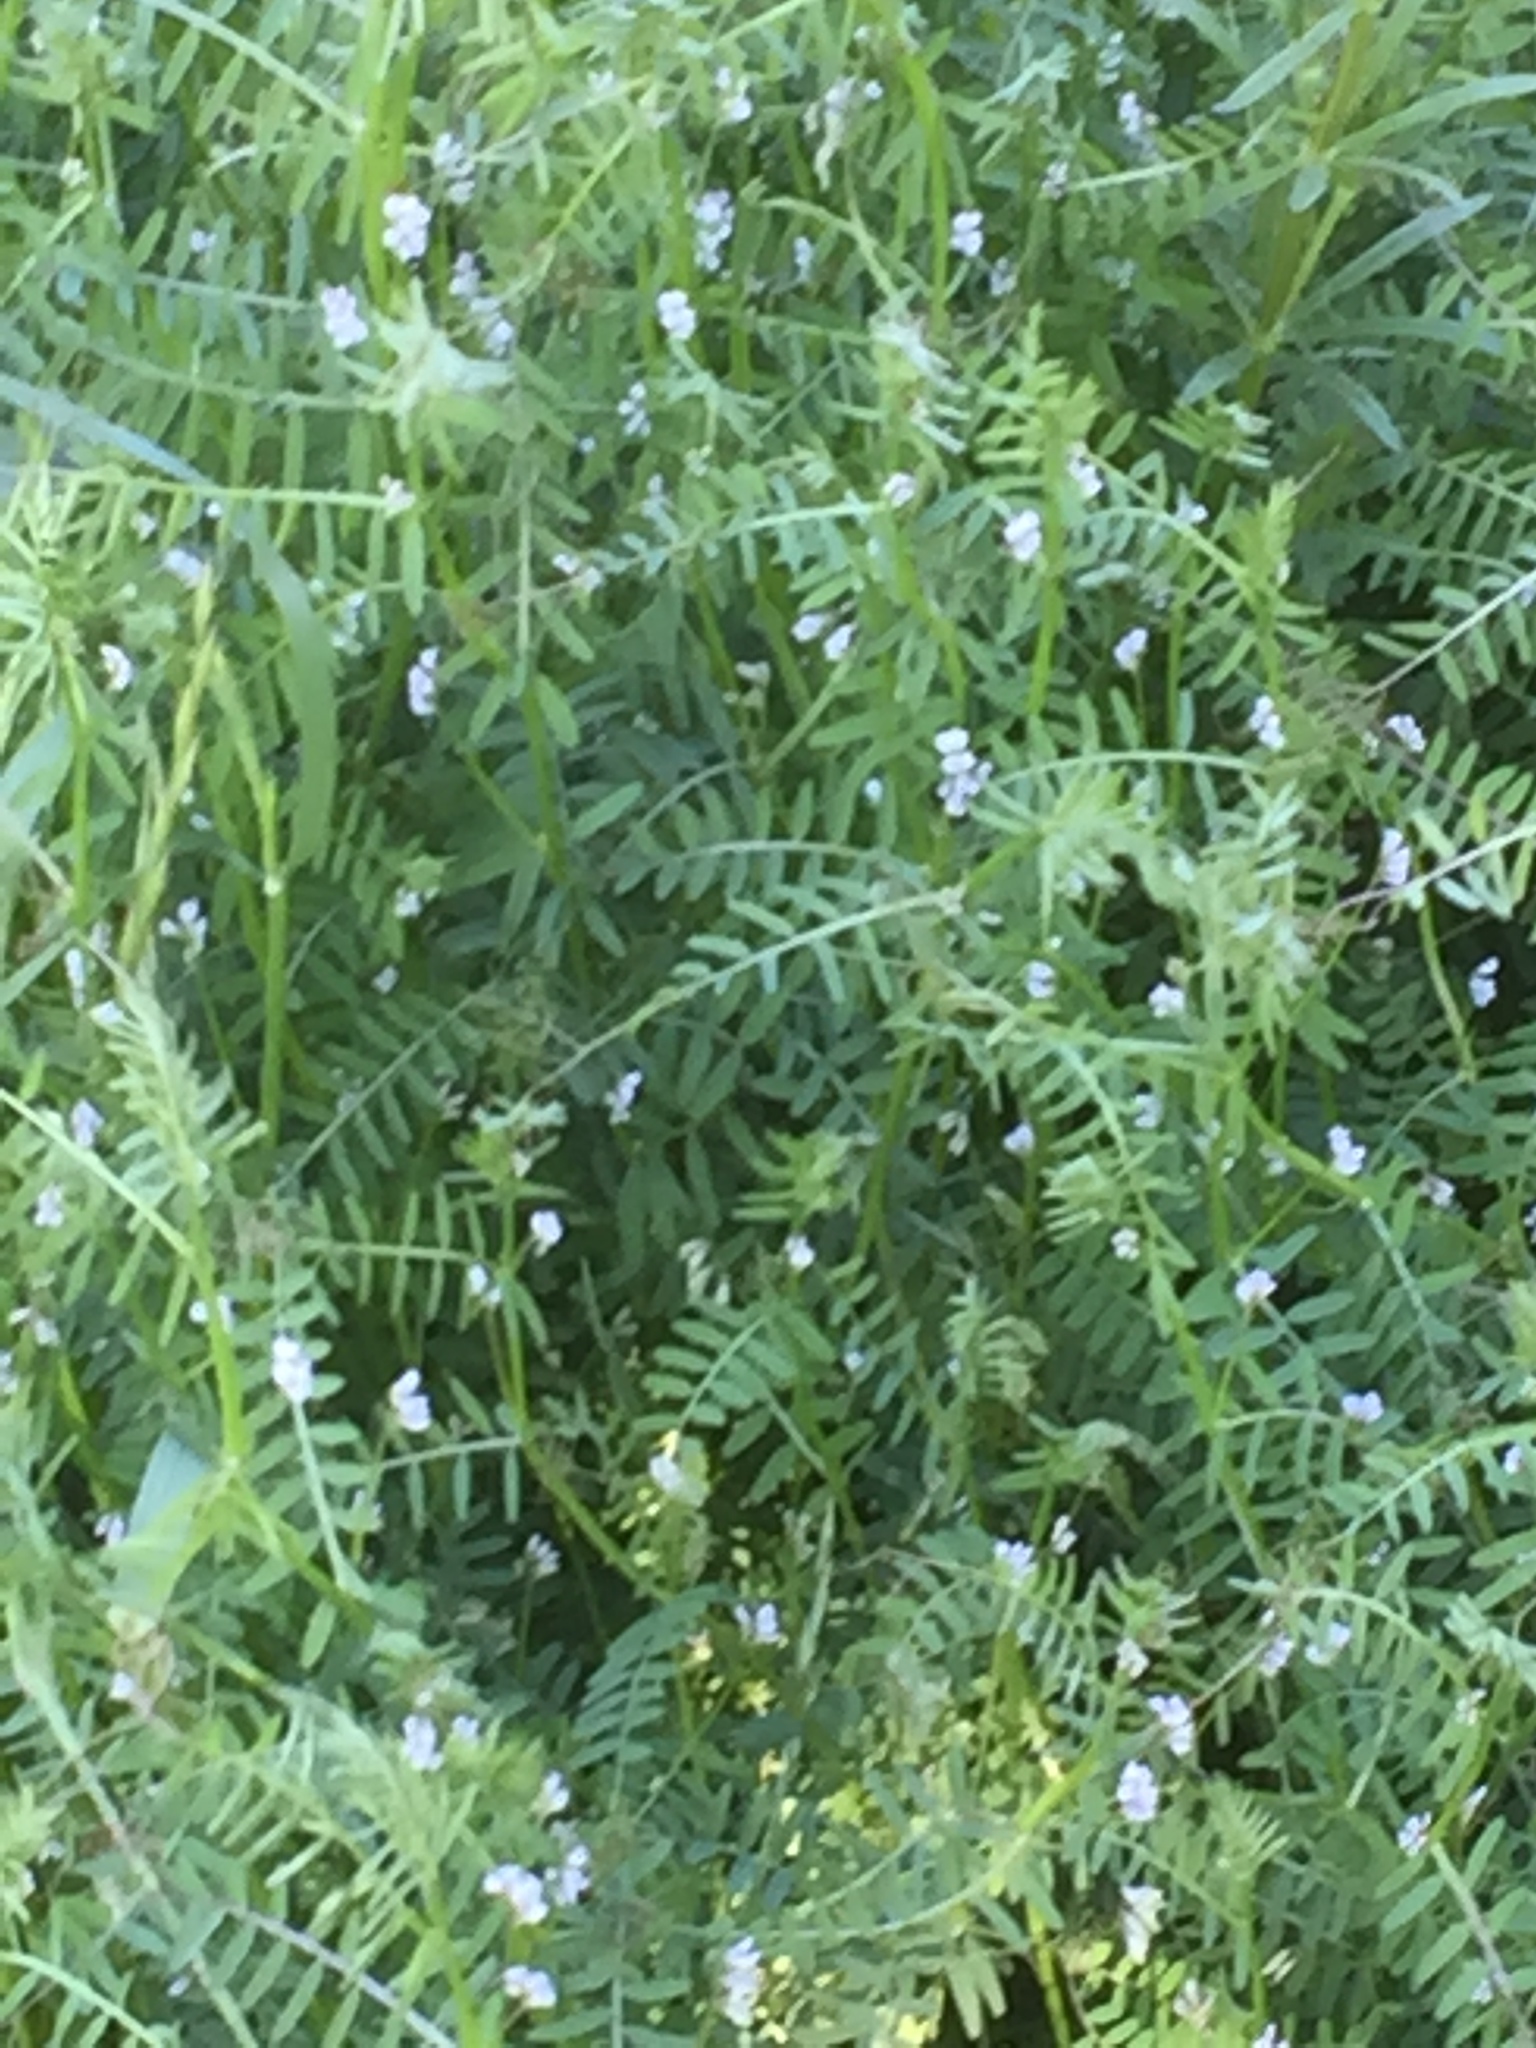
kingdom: Plantae
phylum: Tracheophyta
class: Magnoliopsida
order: Fabales
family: Fabaceae
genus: Vicia
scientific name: Vicia hirsuta
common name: Tiny vetch
